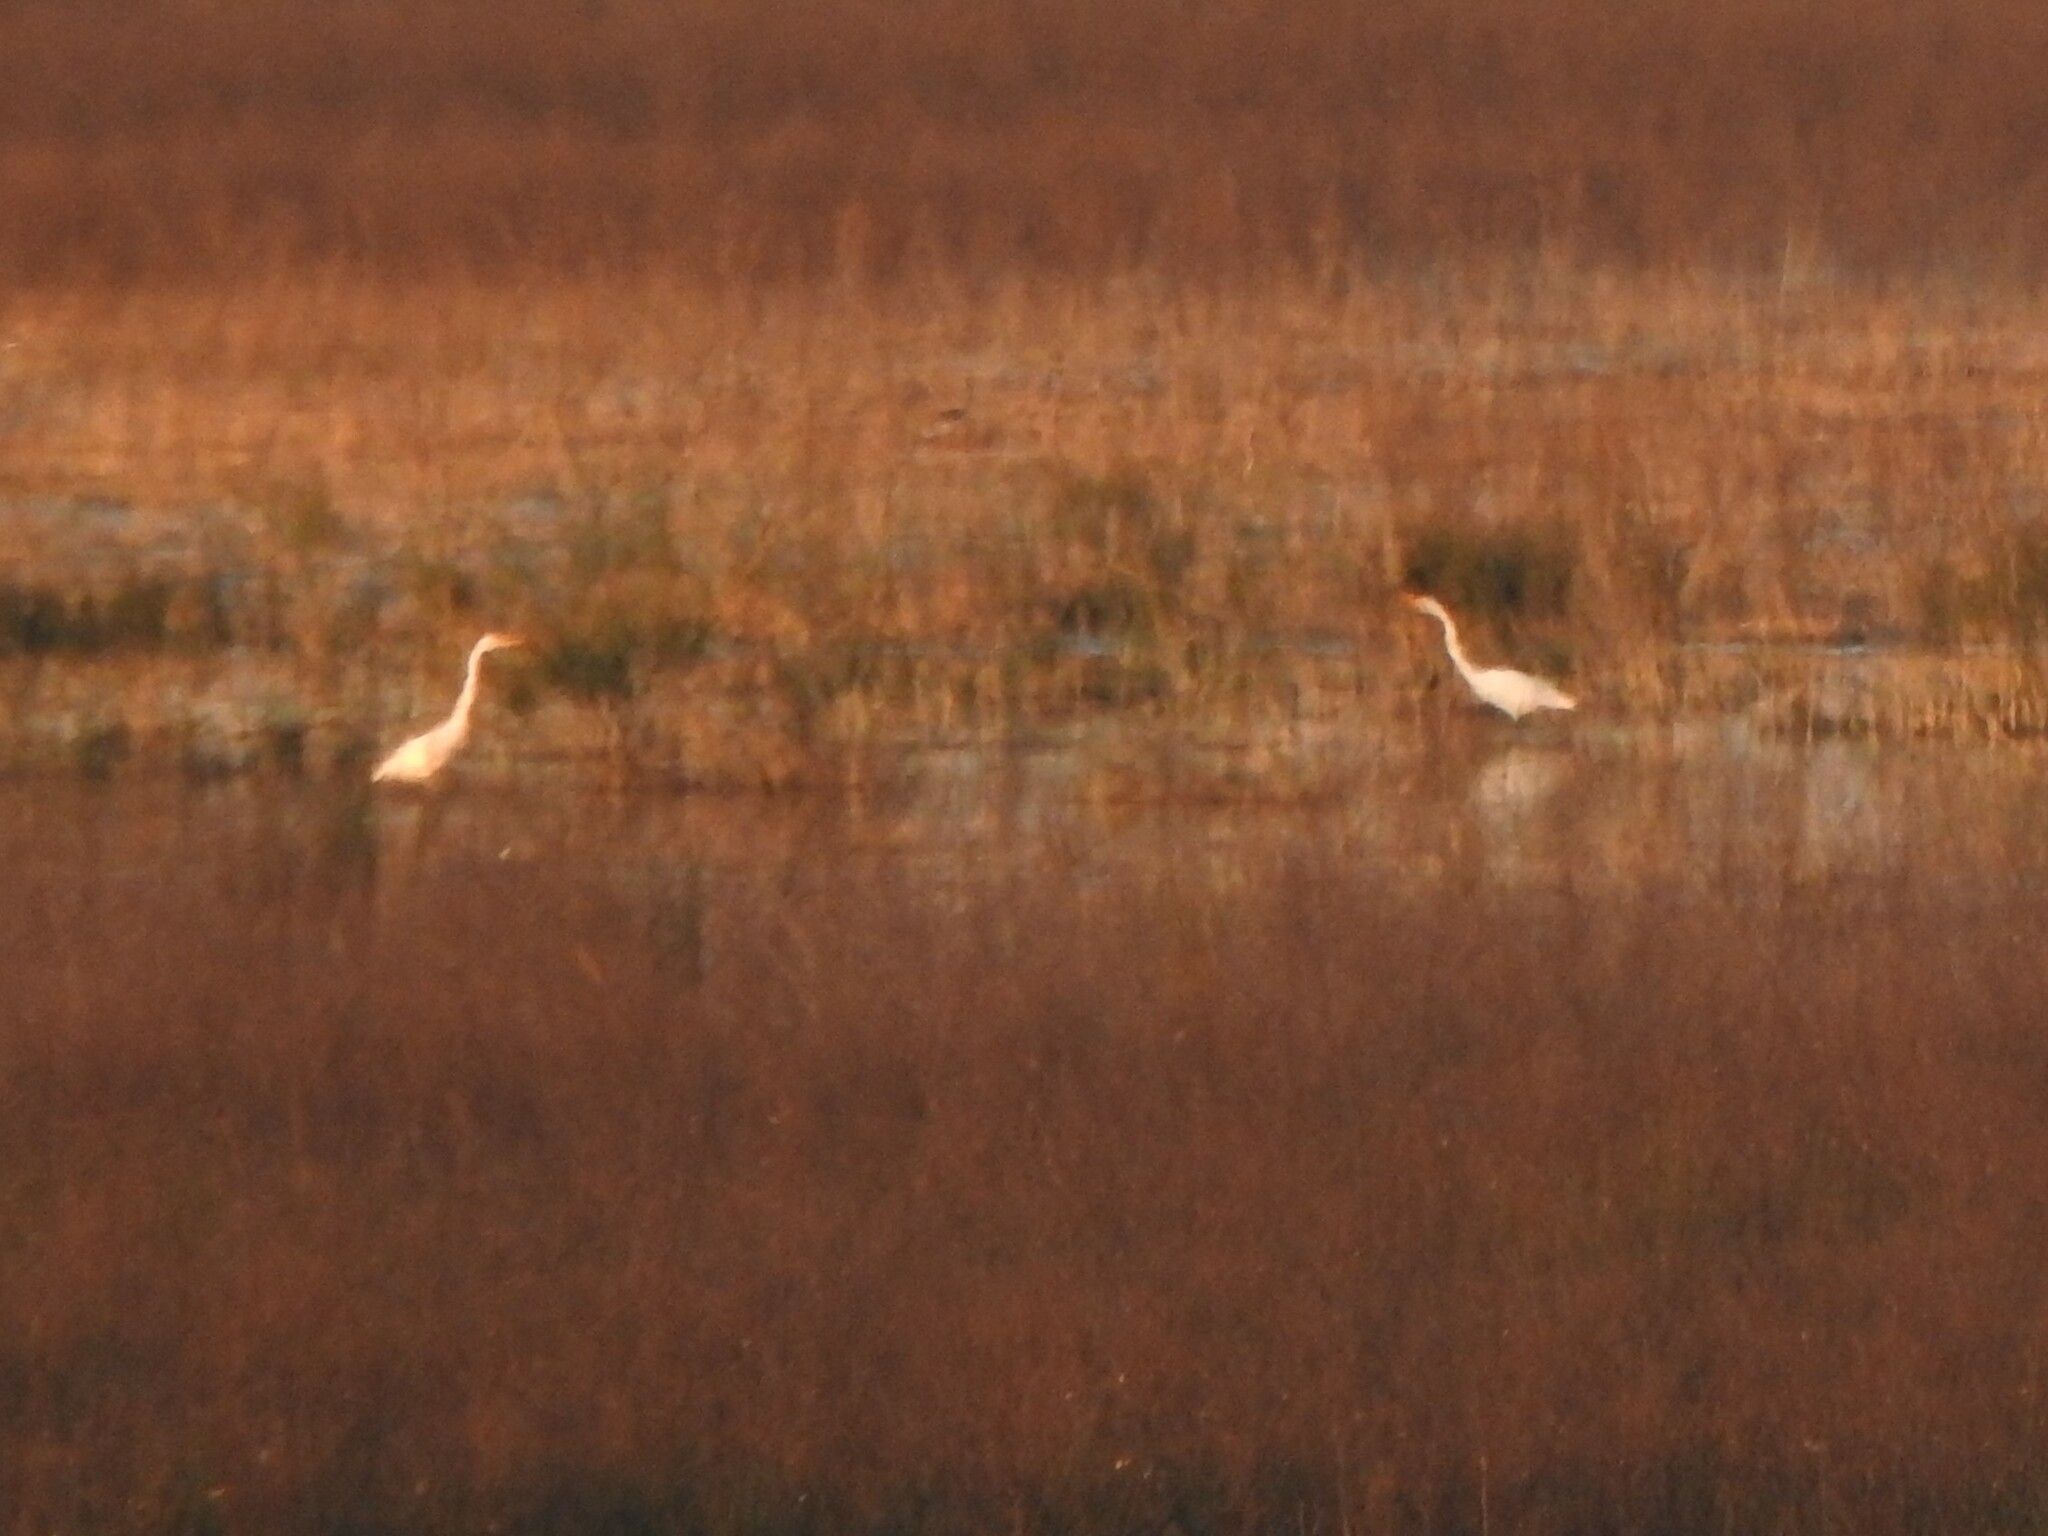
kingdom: Animalia
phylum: Chordata
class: Aves
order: Pelecaniformes
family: Ardeidae
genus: Ardea
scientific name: Ardea alba
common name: Great egret
